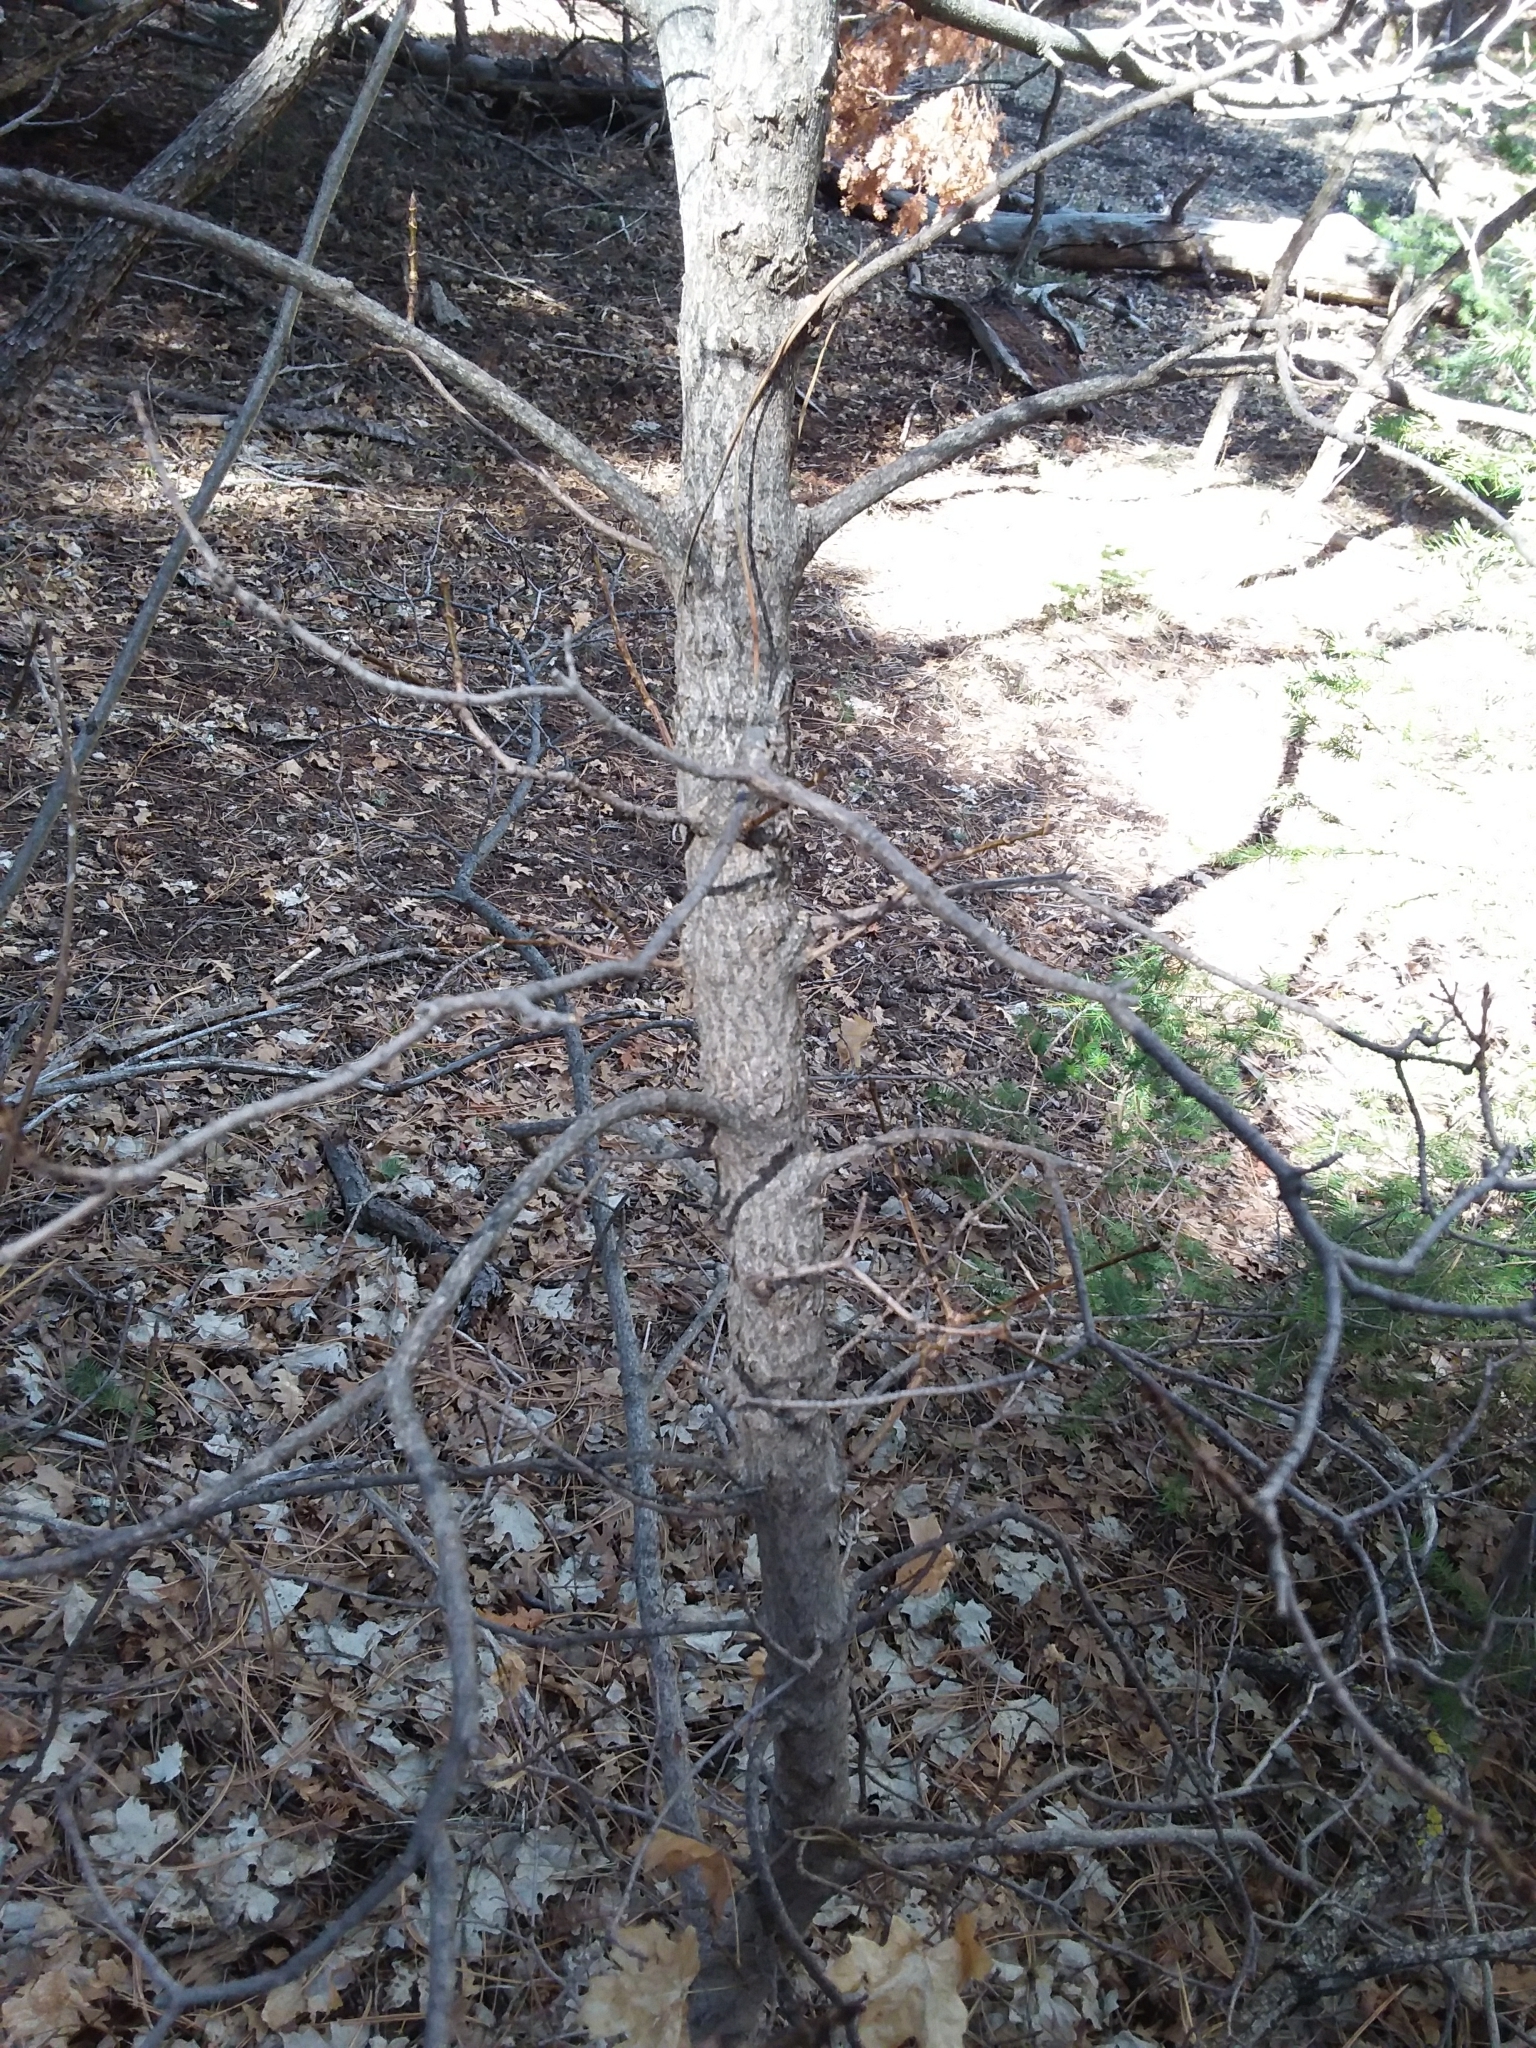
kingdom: Plantae
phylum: Tracheophyta
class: Magnoliopsida
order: Sapindales
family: Sapindaceae
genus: Acer
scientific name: Acer grandidentatum
